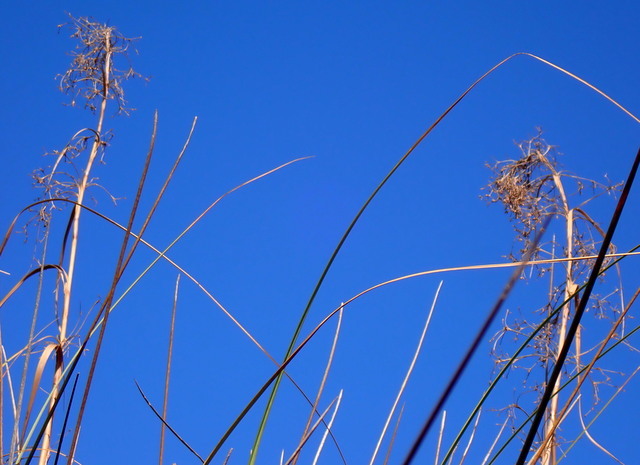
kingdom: Plantae
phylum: Tracheophyta
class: Liliopsida
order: Poales
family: Cyperaceae
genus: Cladium
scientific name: Cladium mariscus
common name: Great fen-sedge
